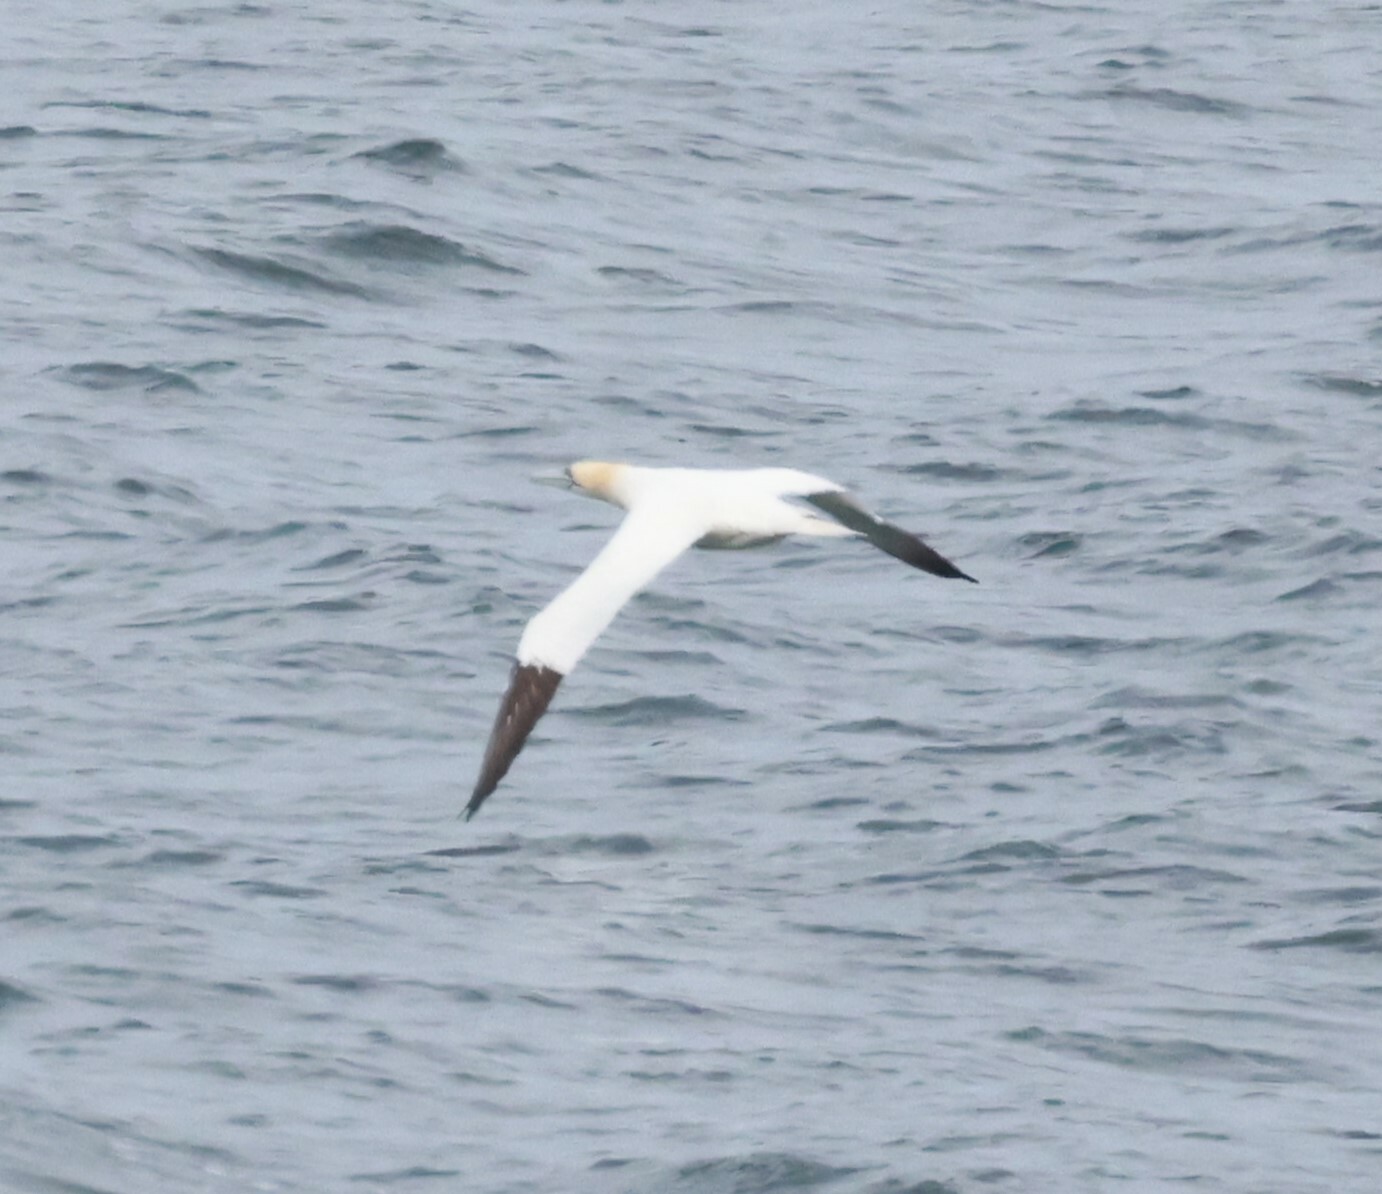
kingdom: Animalia
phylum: Chordata
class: Aves
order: Suliformes
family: Sulidae
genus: Morus
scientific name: Morus bassanus
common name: Northern gannet
